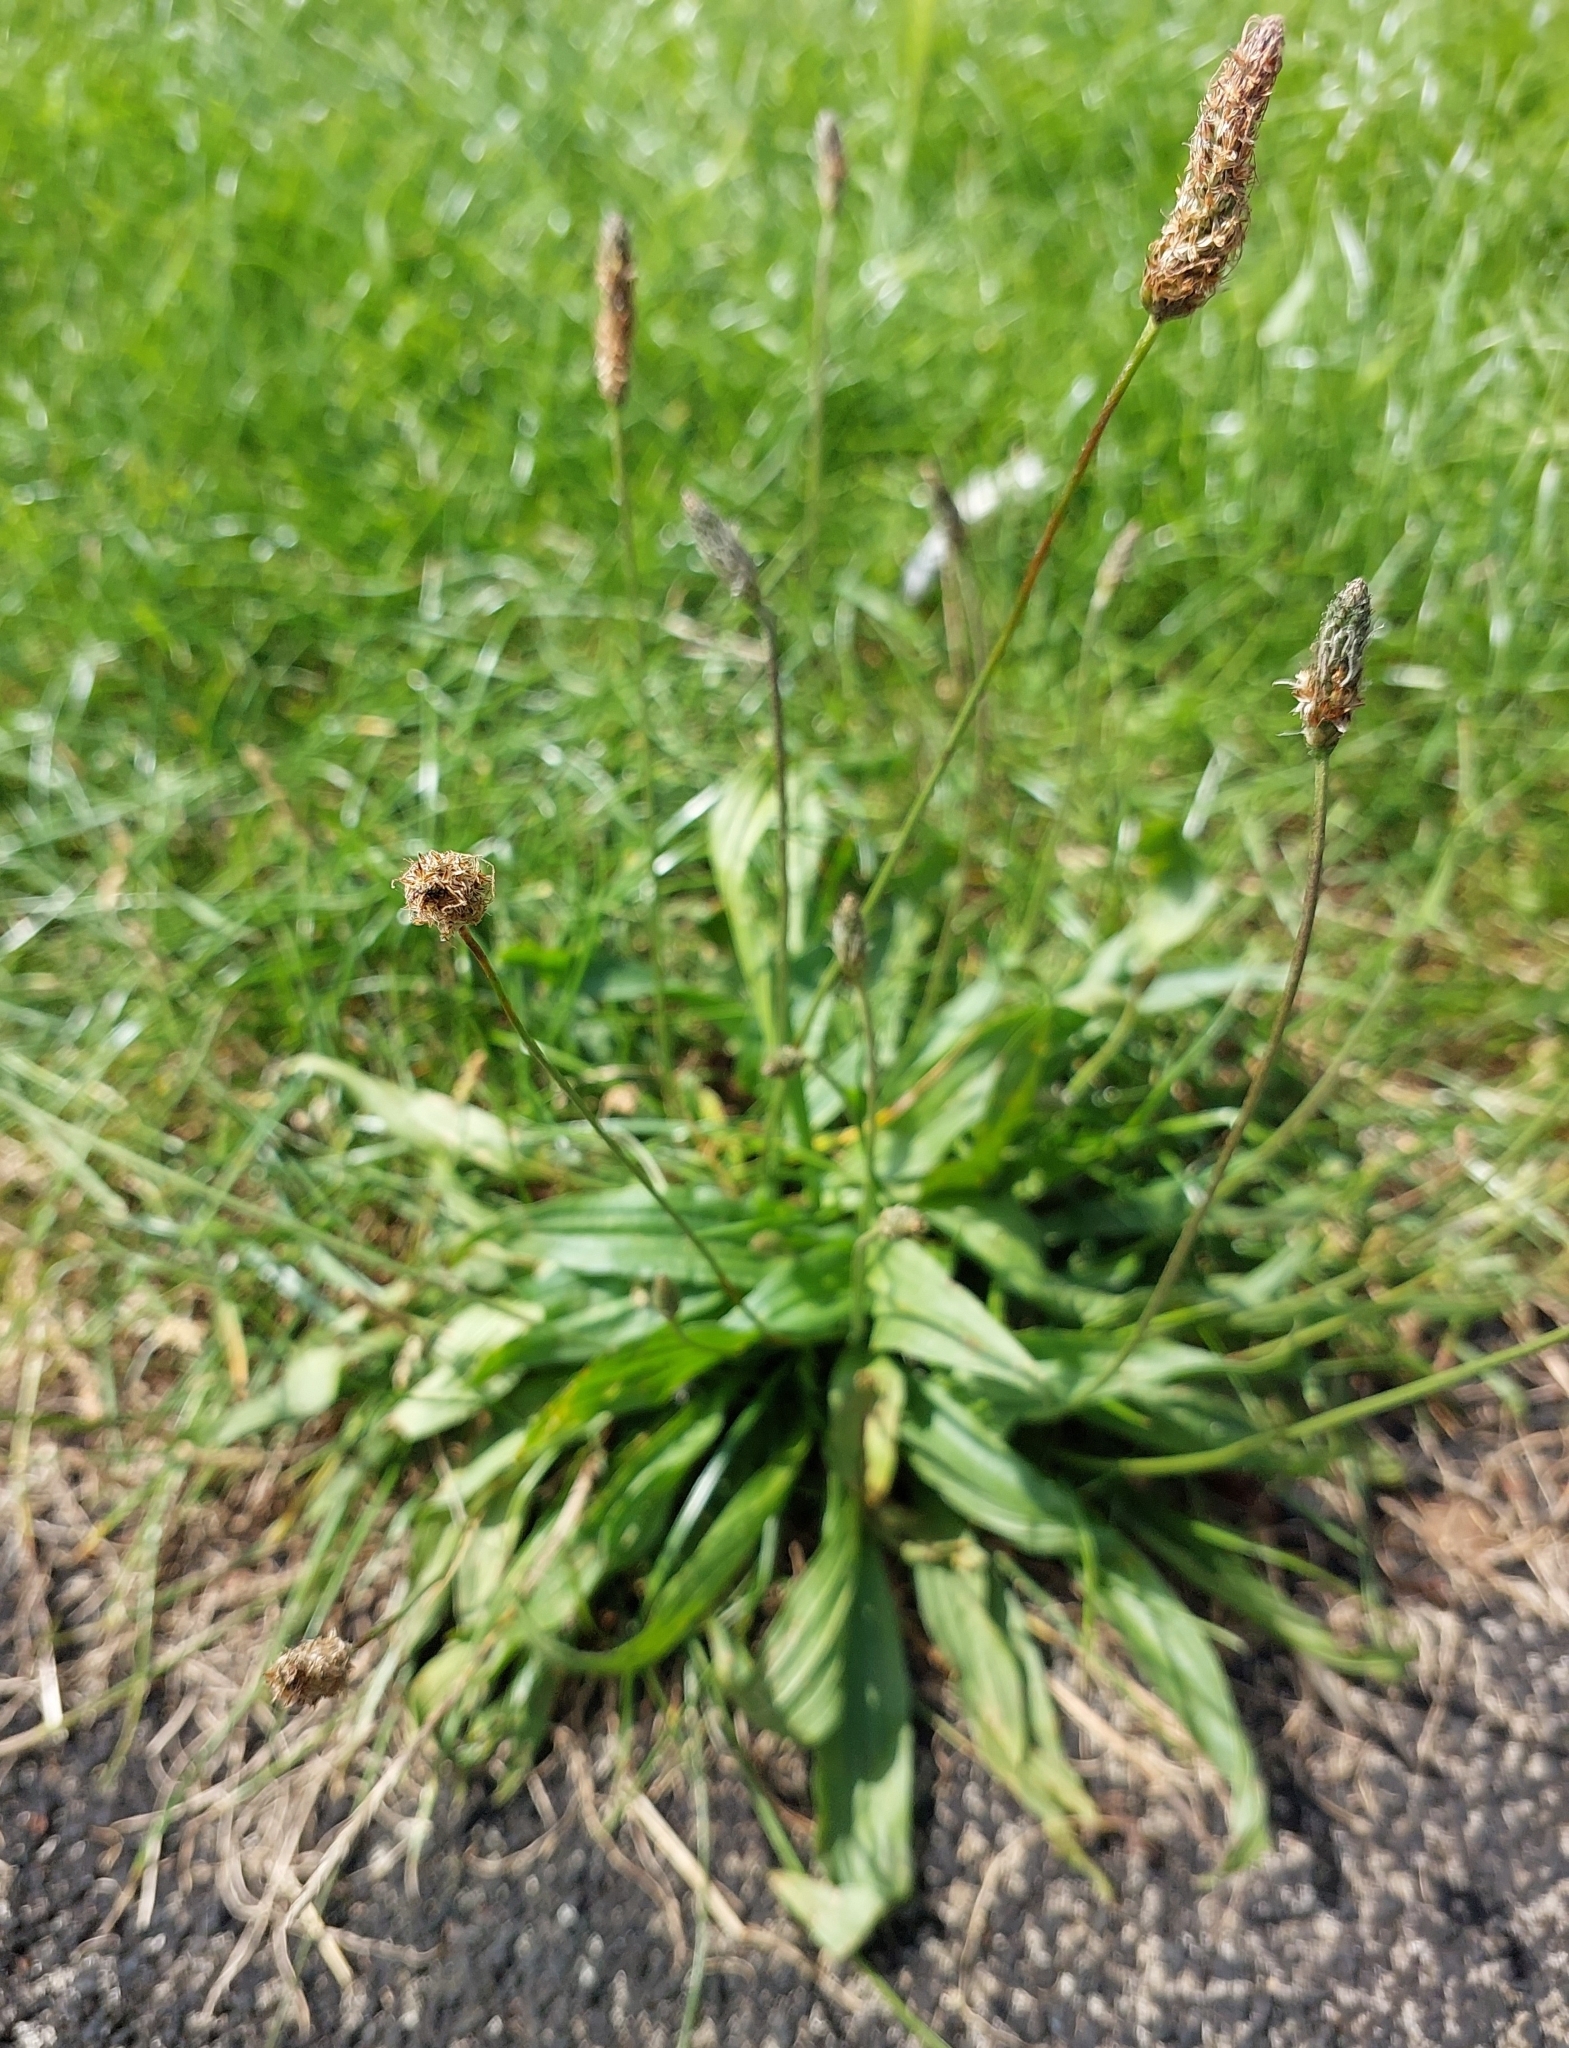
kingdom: Plantae
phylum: Tracheophyta
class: Magnoliopsida
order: Lamiales
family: Plantaginaceae
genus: Plantago
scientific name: Plantago lanceolata
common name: Ribwort plantain
